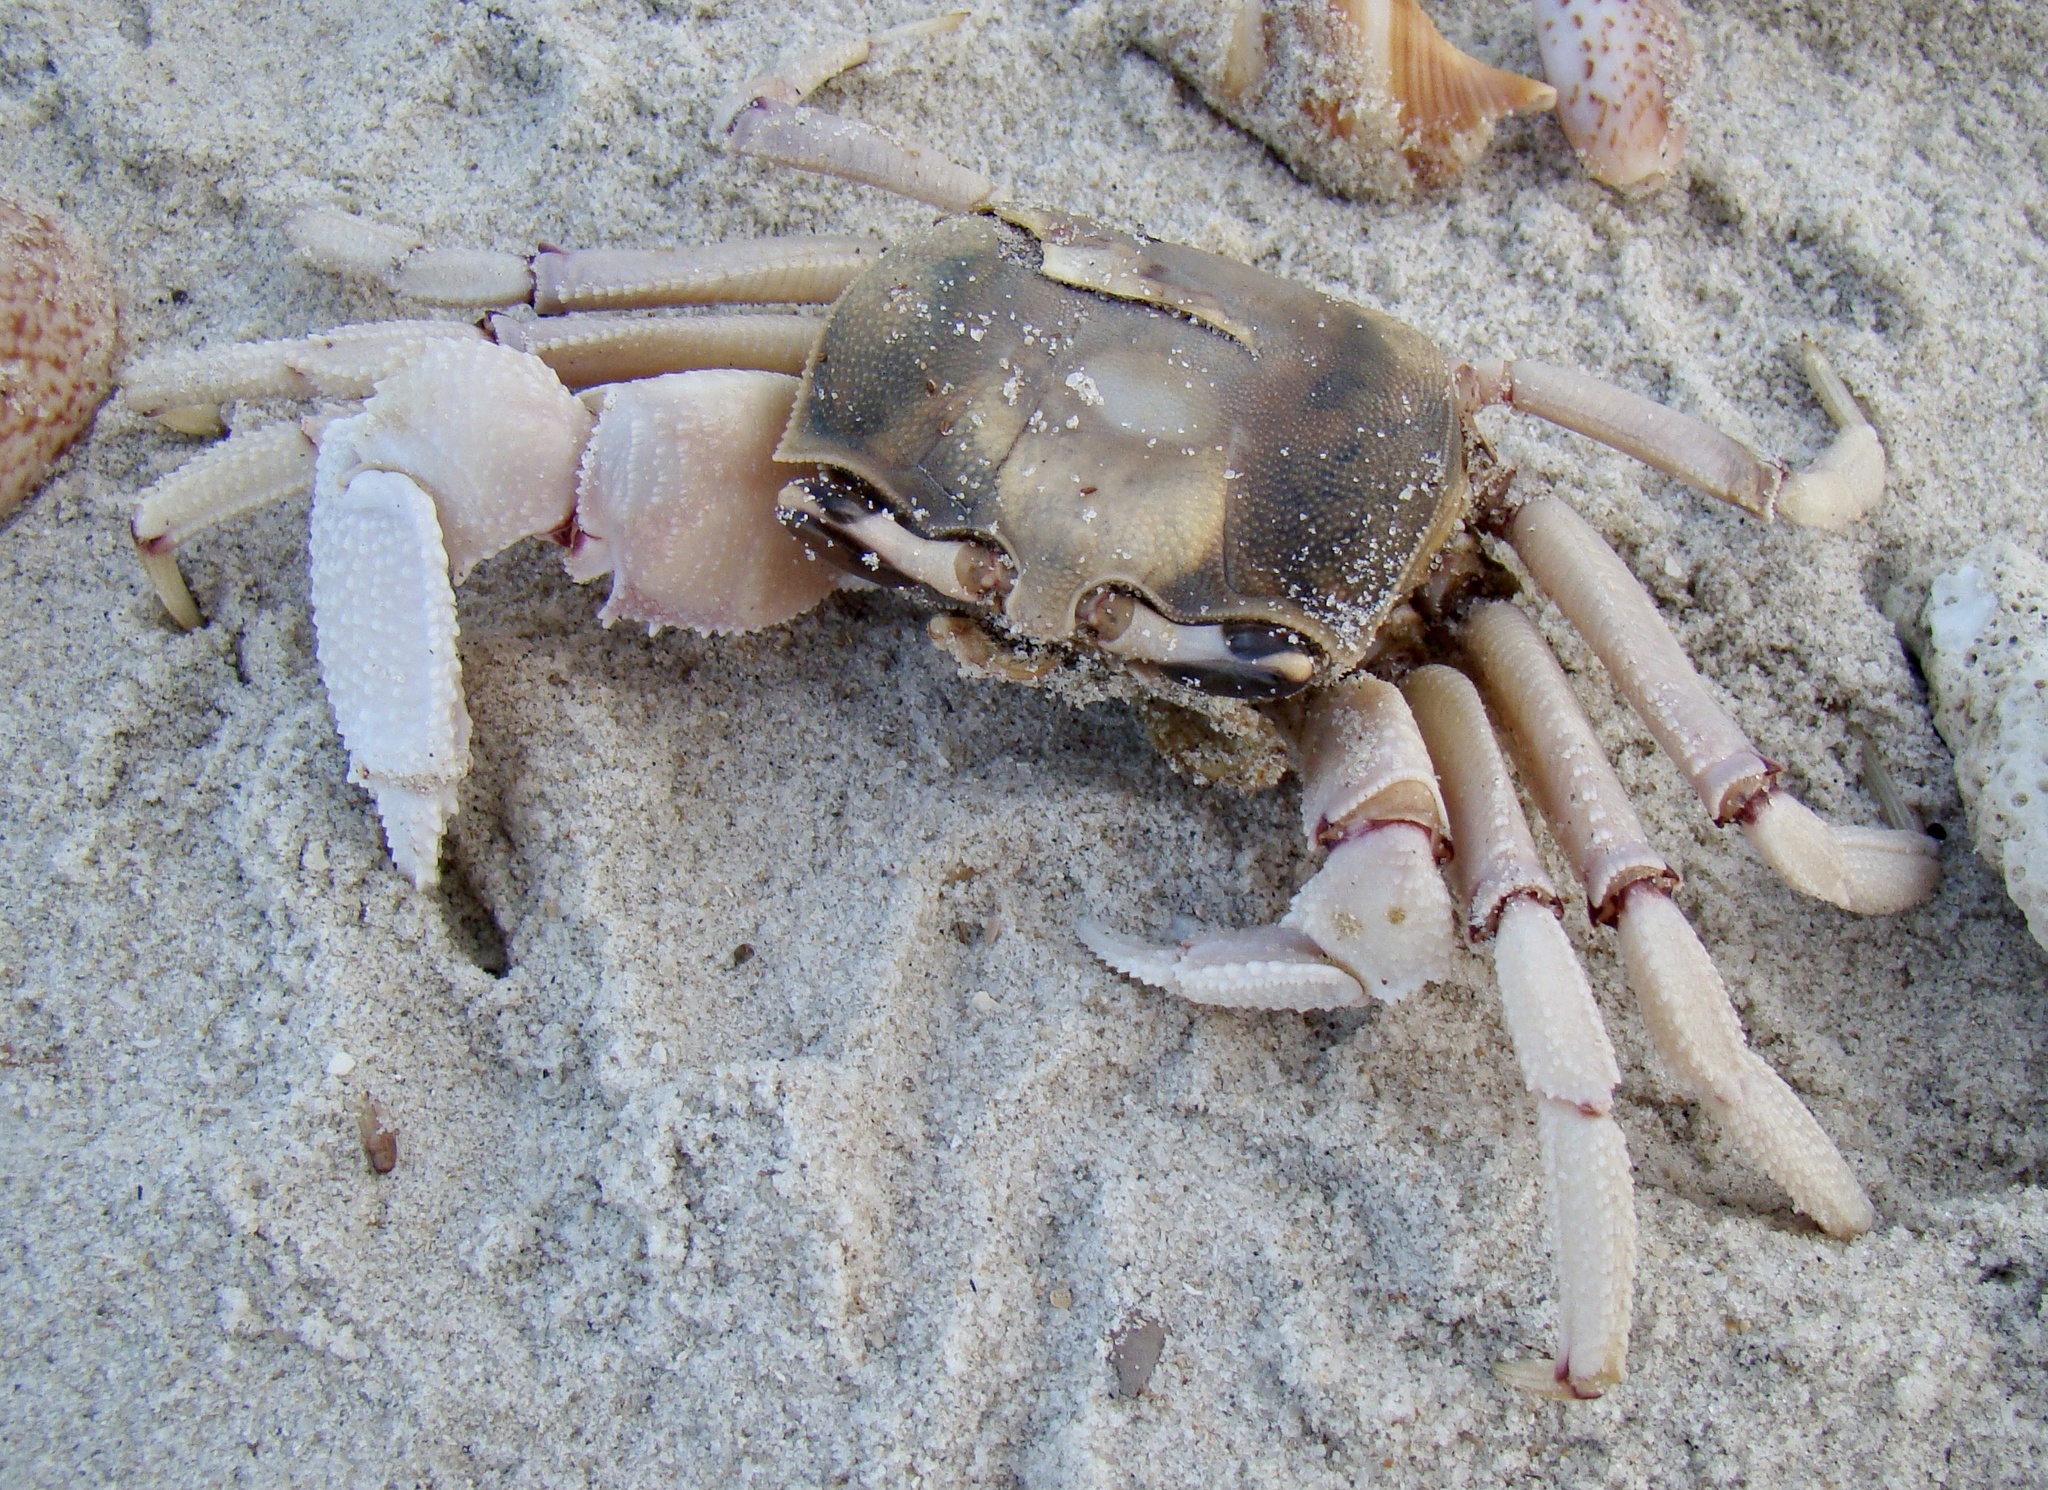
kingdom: Animalia
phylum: Arthropoda
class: Malacostraca
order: Decapoda
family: Ocypodidae
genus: Ocypode
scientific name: Ocypode ryderi
